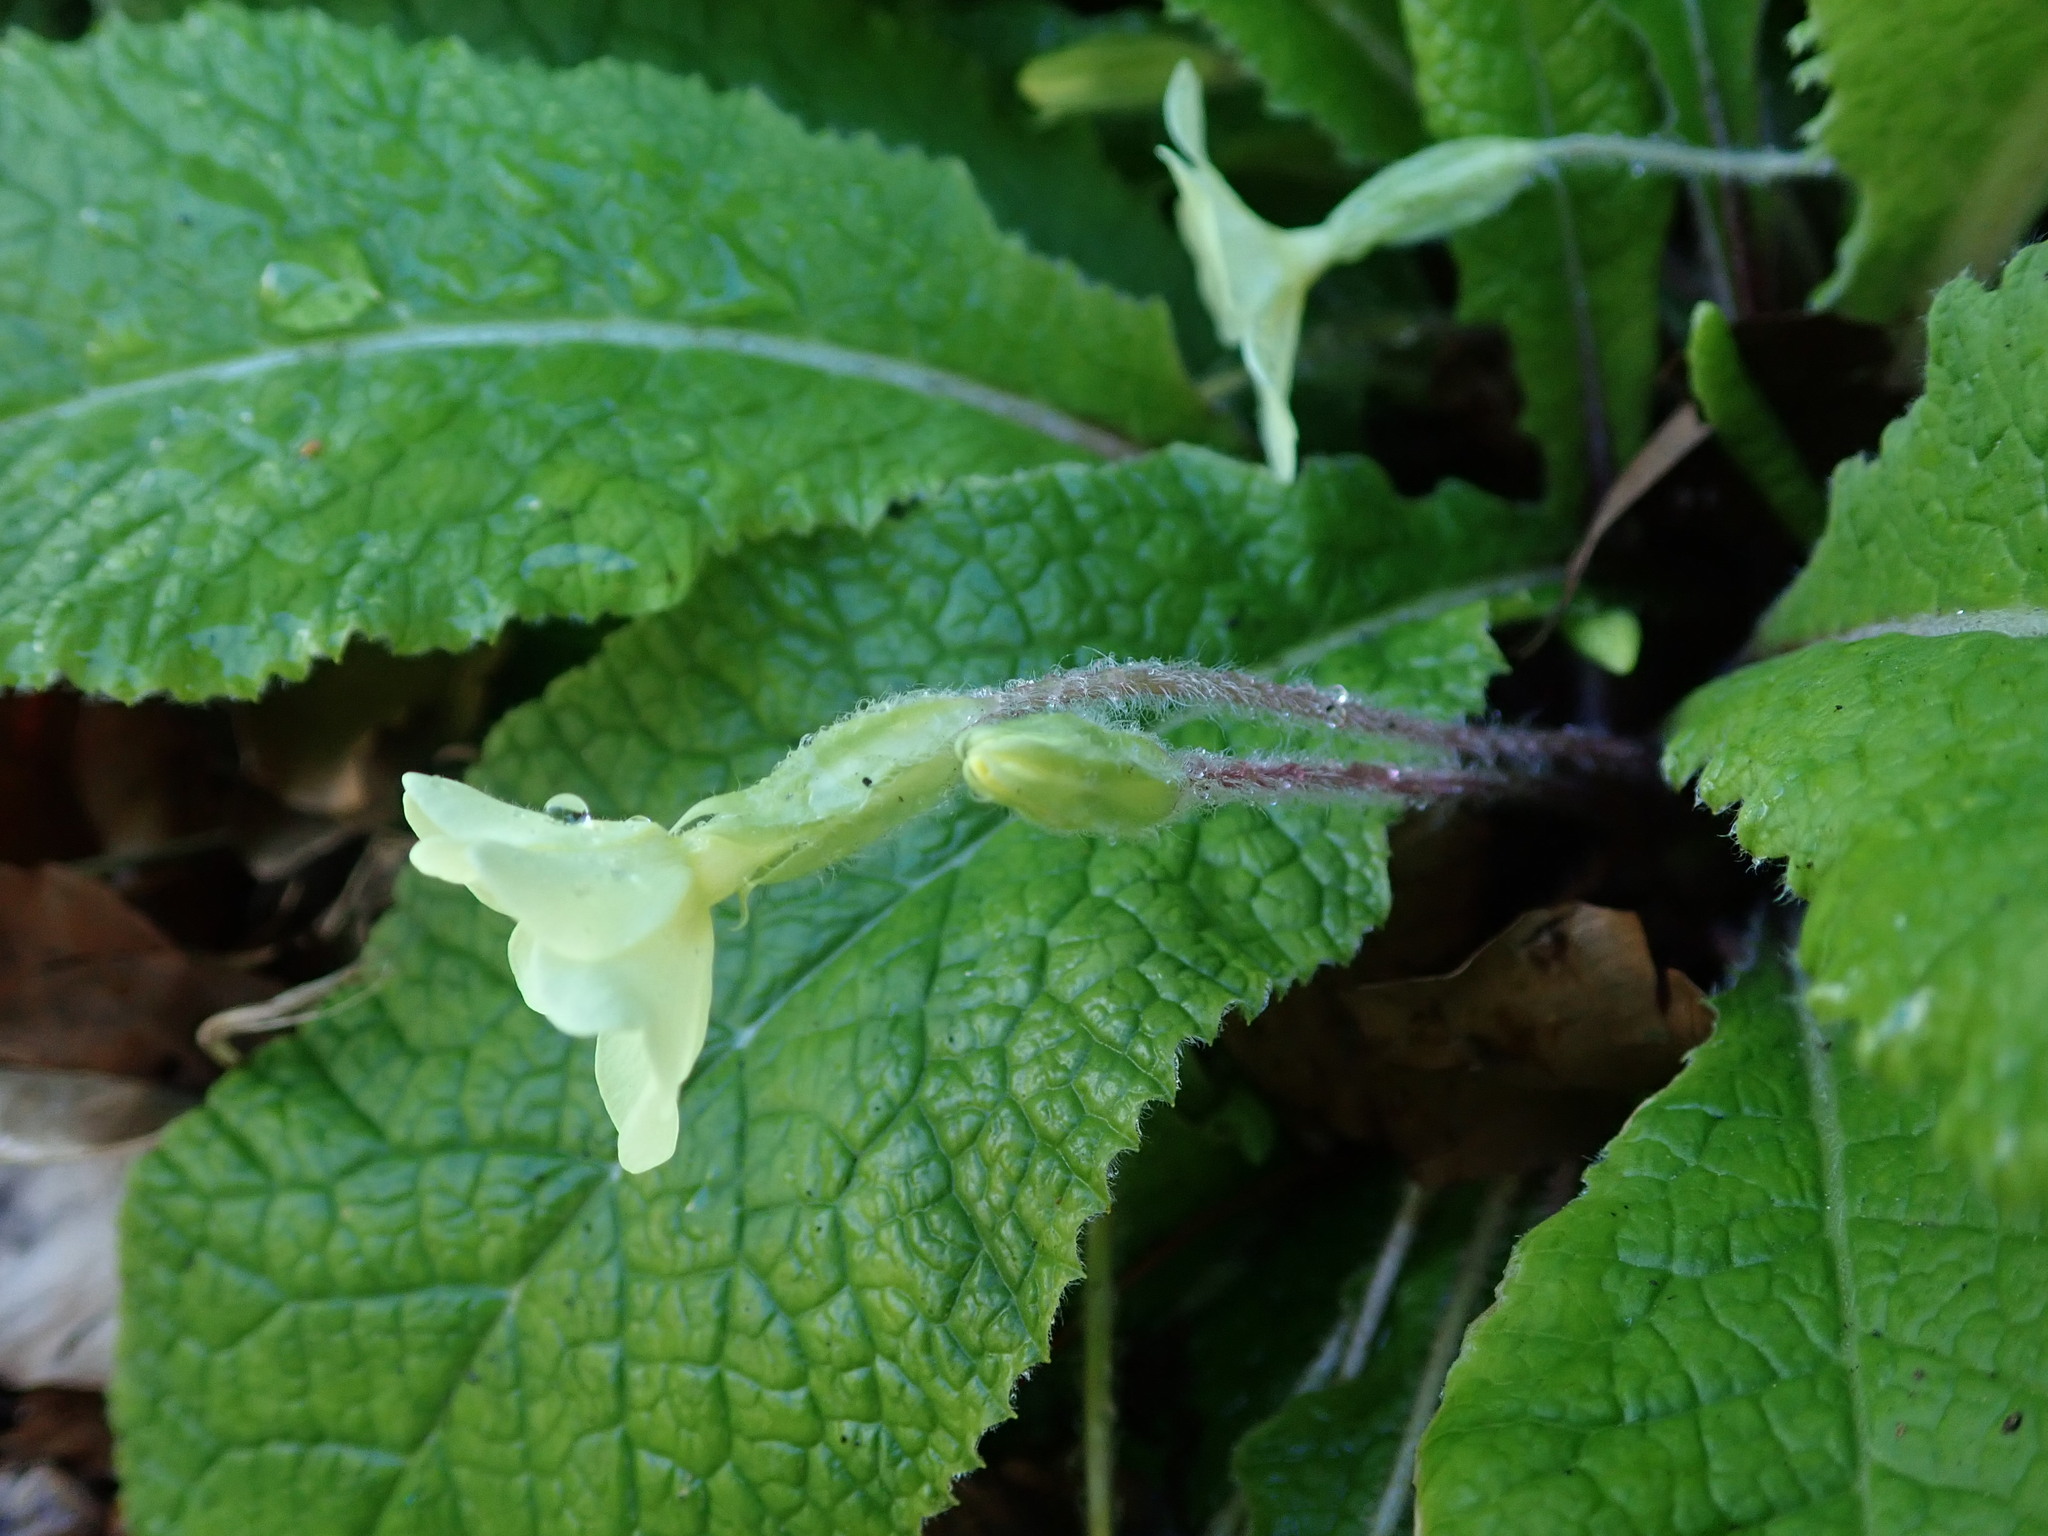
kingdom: Plantae
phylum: Tracheophyta
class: Magnoliopsida
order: Ericales
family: Primulaceae
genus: Primula
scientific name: Primula vulgaris
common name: Primrose
